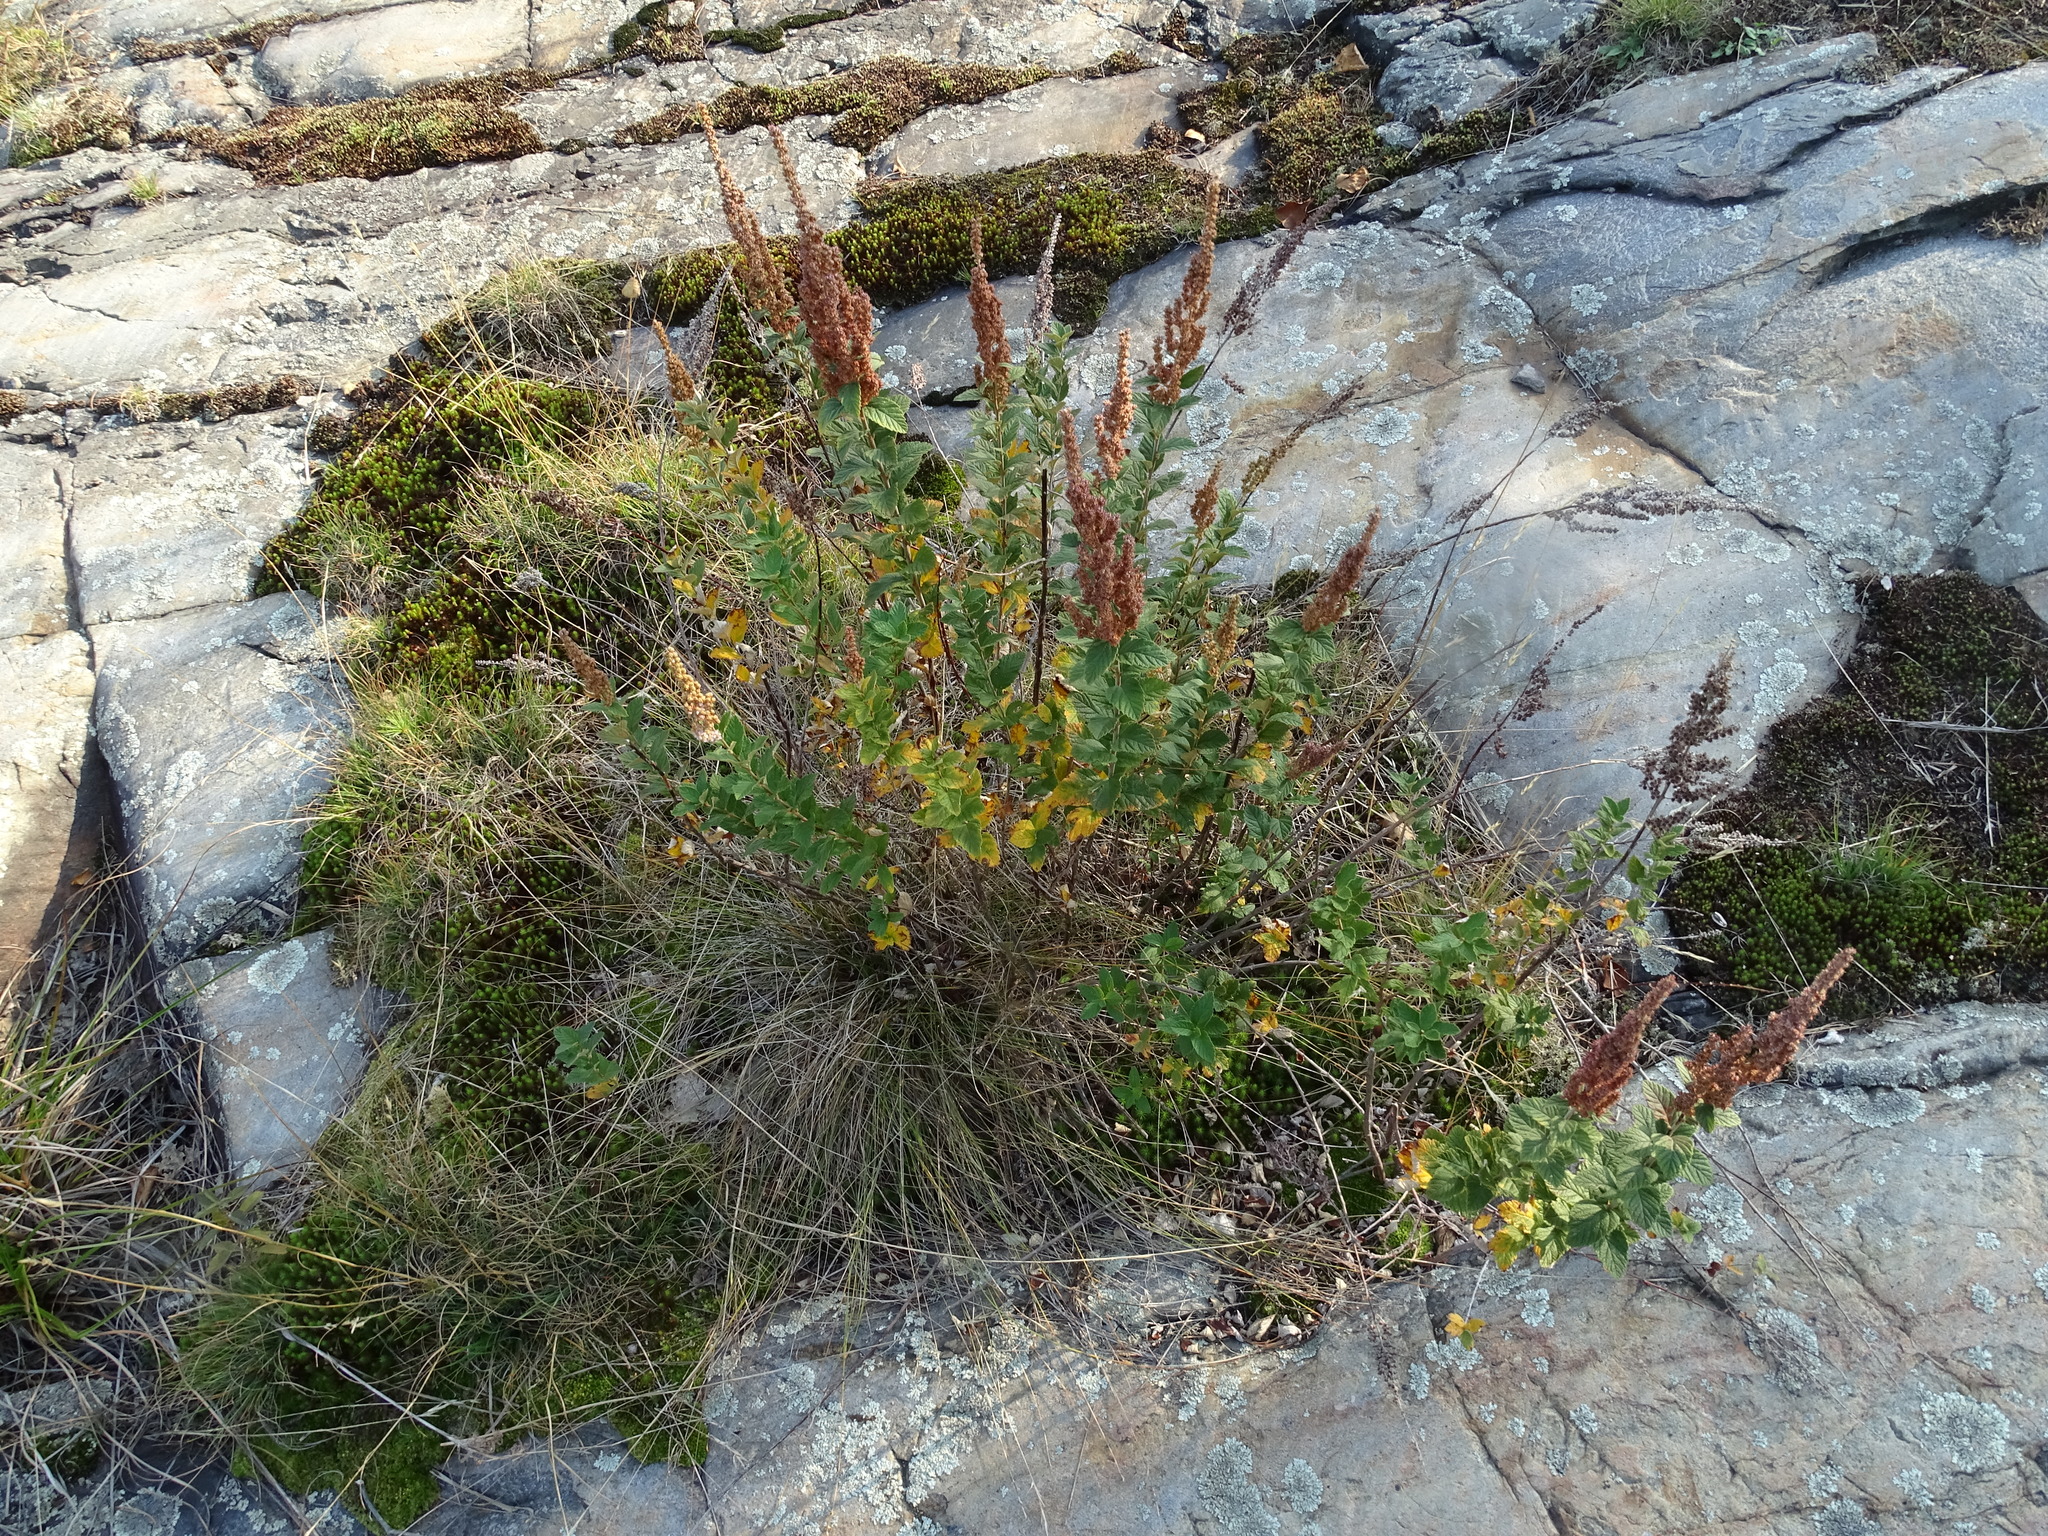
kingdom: Plantae
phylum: Tracheophyta
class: Magnoliopsida
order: Rosales
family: Rosaceae
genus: Spiraea
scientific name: Spiraea tomentosa
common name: Hardhack
